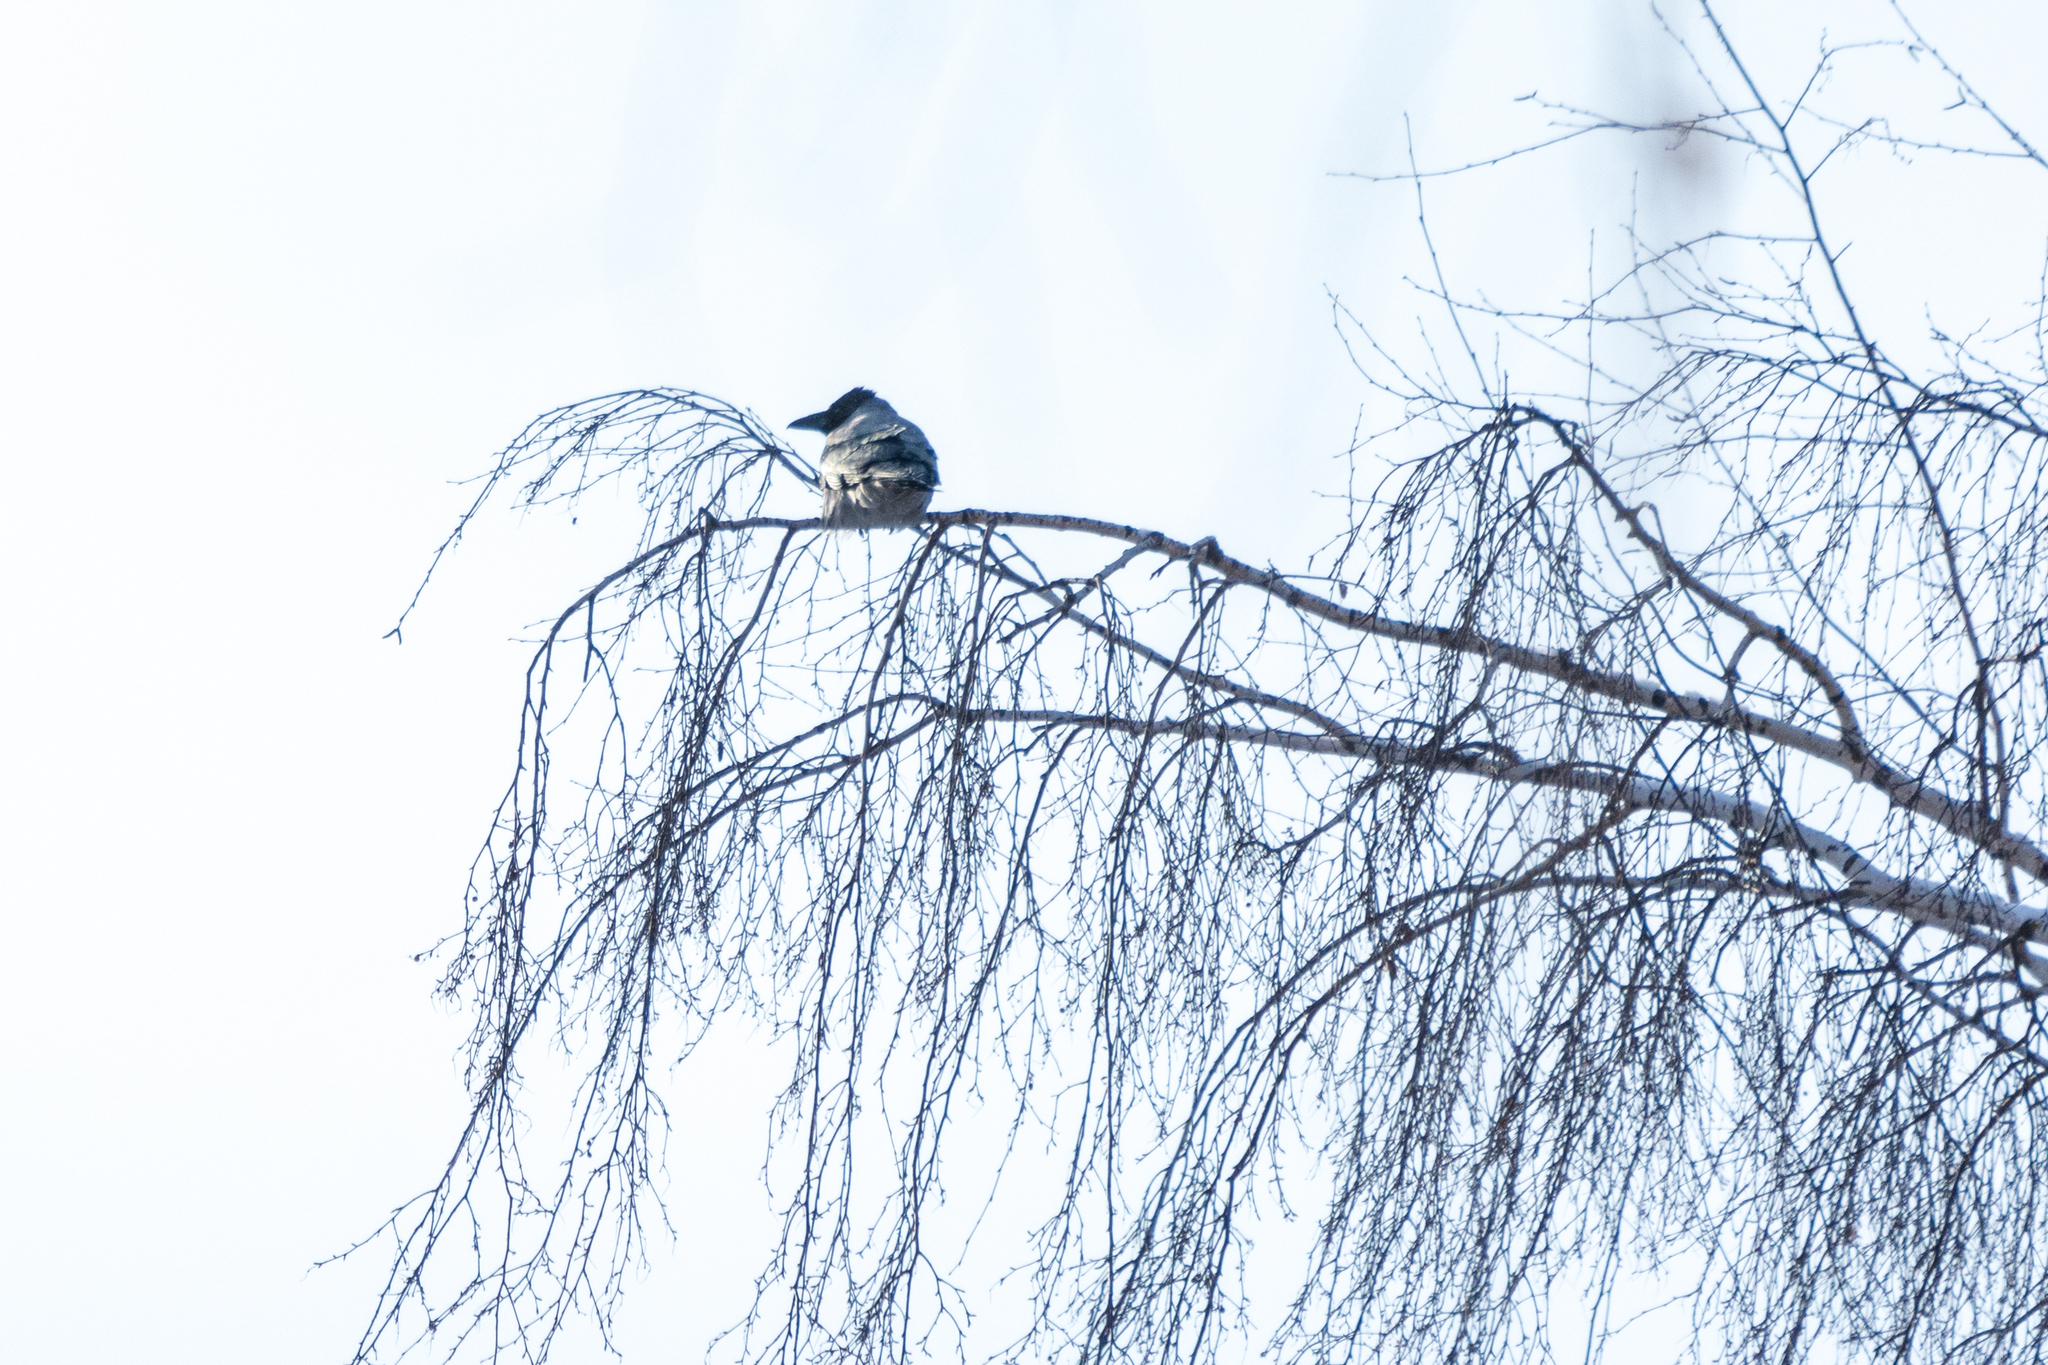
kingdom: Animalia
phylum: Chordata
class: Aves
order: Passeriformes
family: Corvidae
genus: Corvus
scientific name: Corvus cornix
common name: Hooded crow
